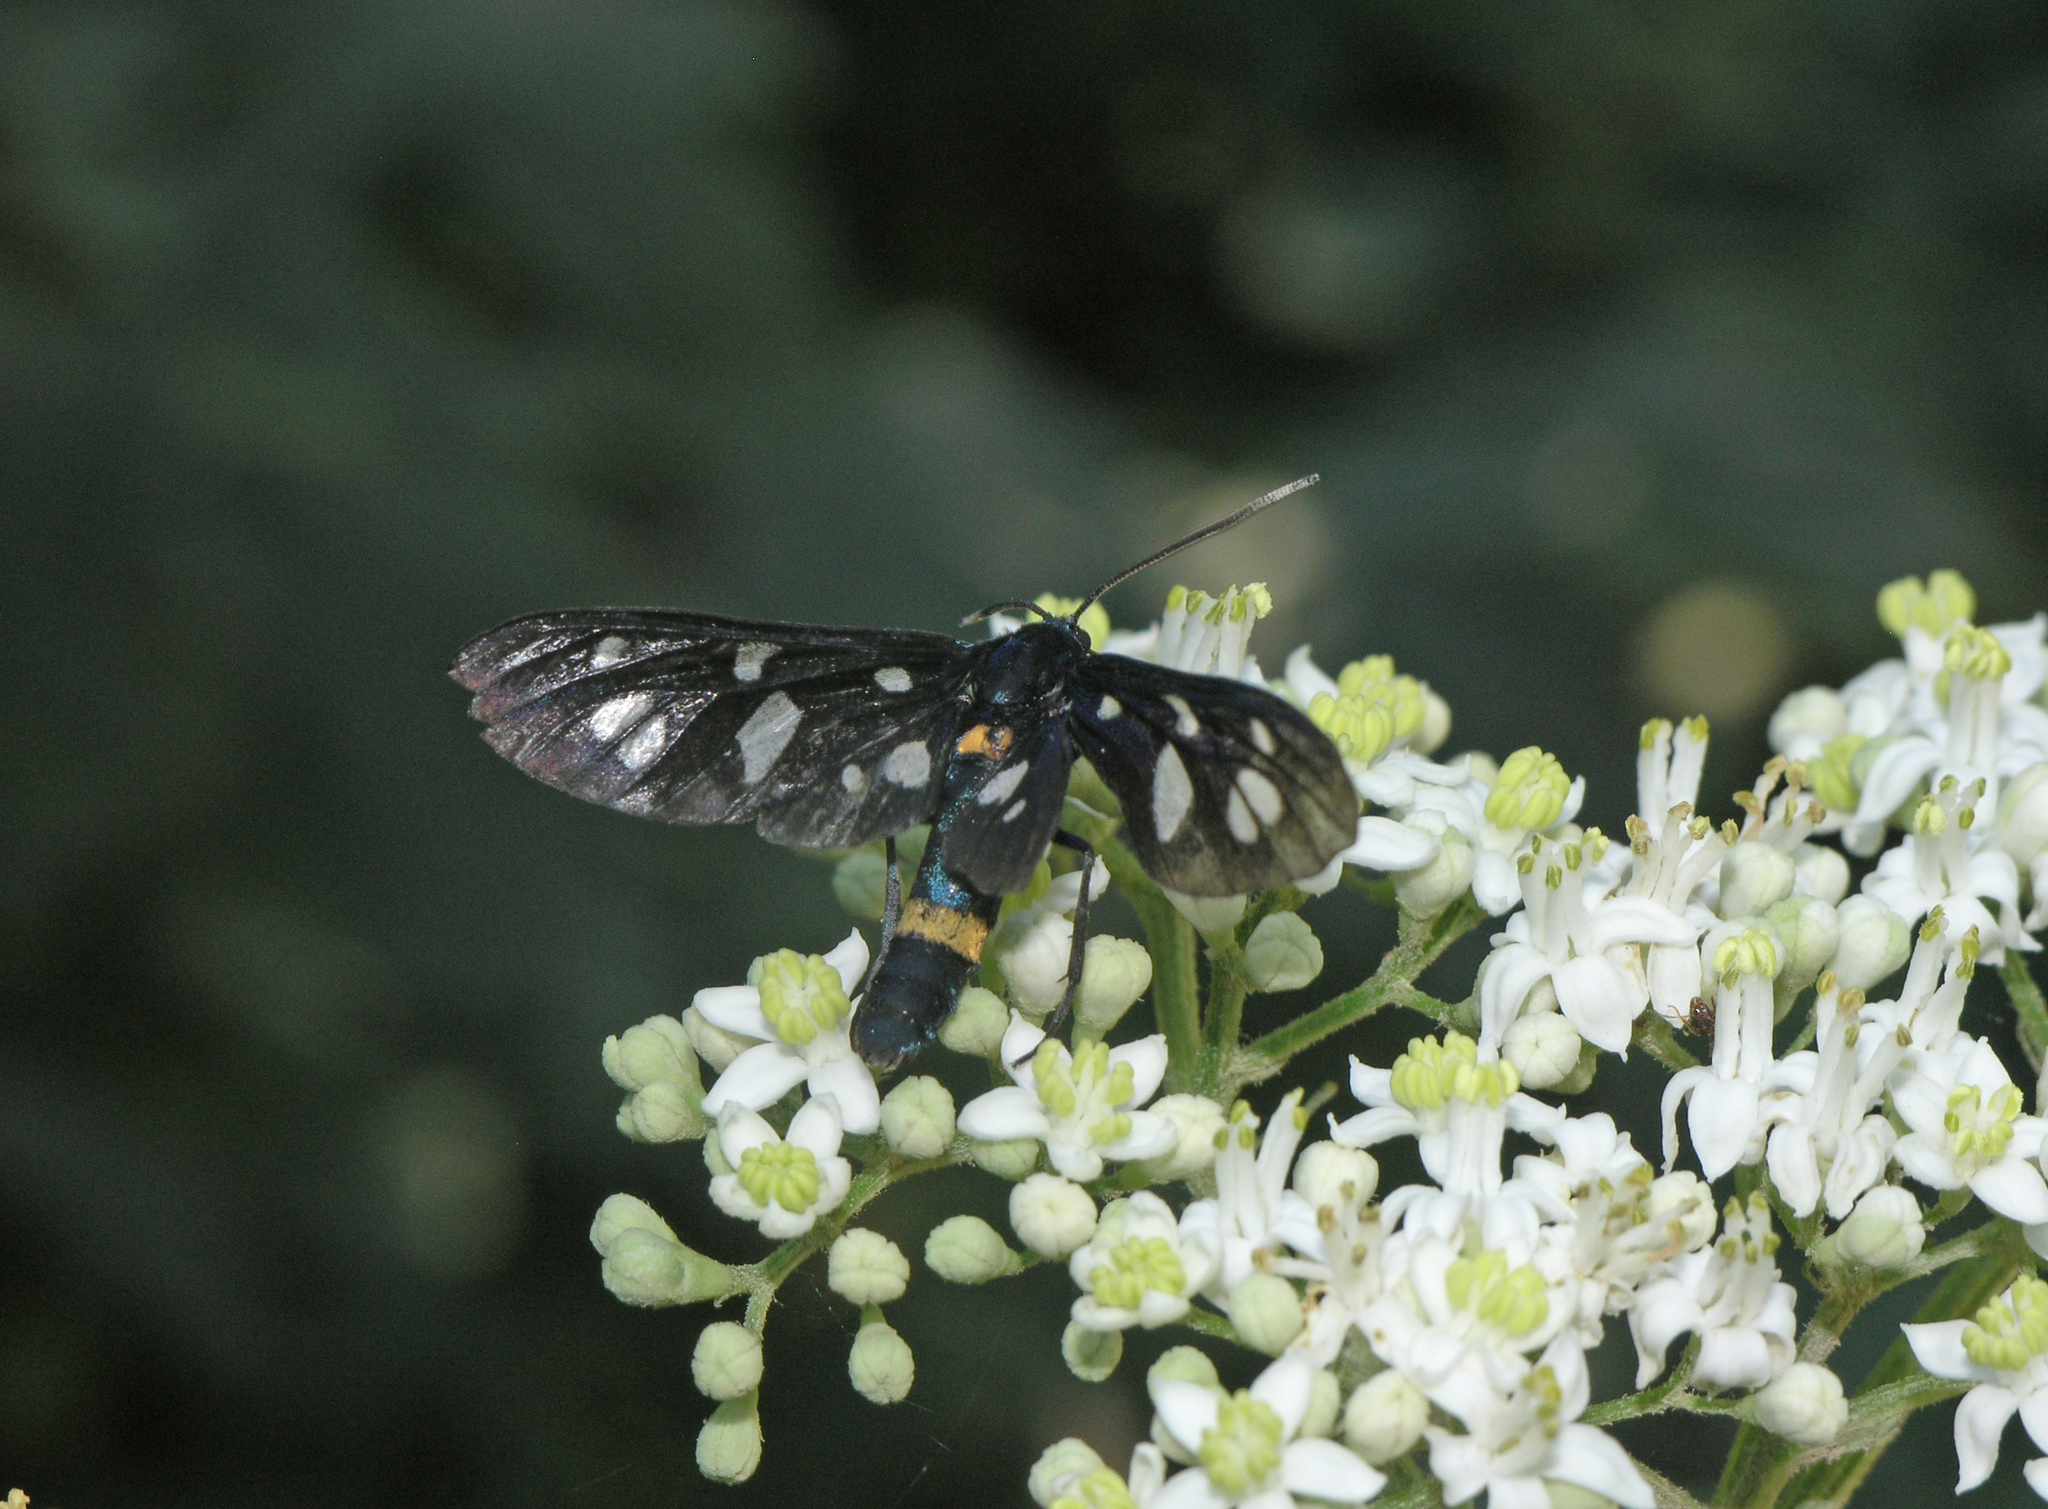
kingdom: Animalia
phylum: Arthropoda
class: Insecta
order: Lepidoptera
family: Erebidae
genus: Amata
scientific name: Amata nigricornis
